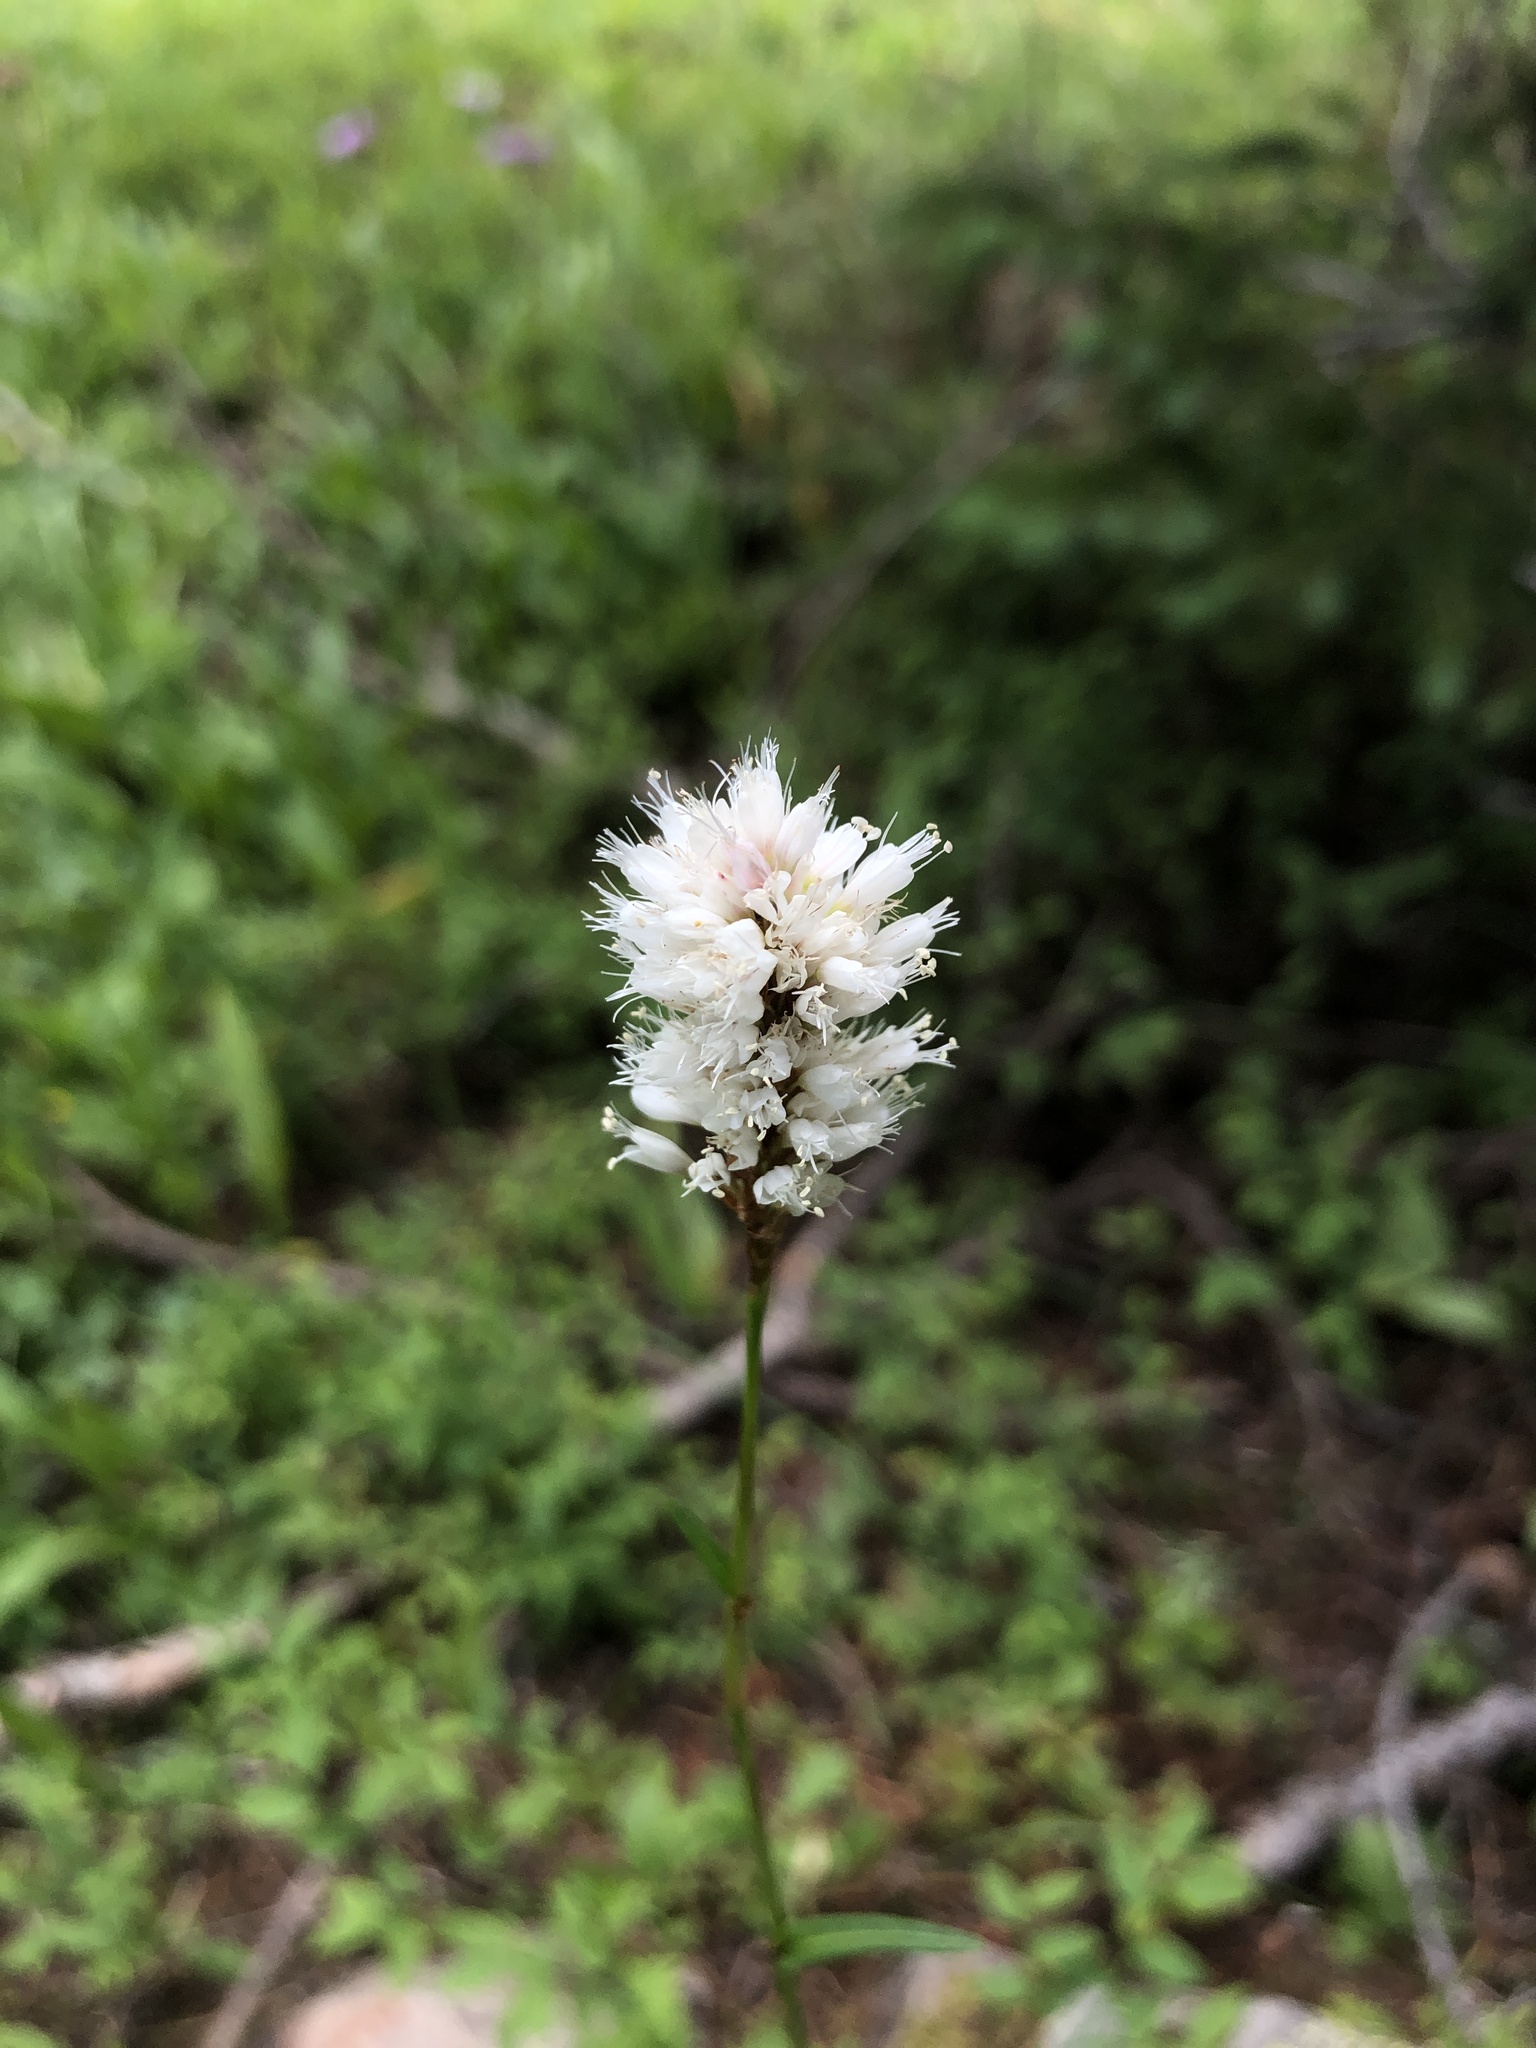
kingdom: Plantae
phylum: Tracheophyta
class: Magnoliopsida
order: Caryophyllales
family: Polygonaceae
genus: Bistorta
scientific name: Bistorta bistortoides
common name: American bistort
